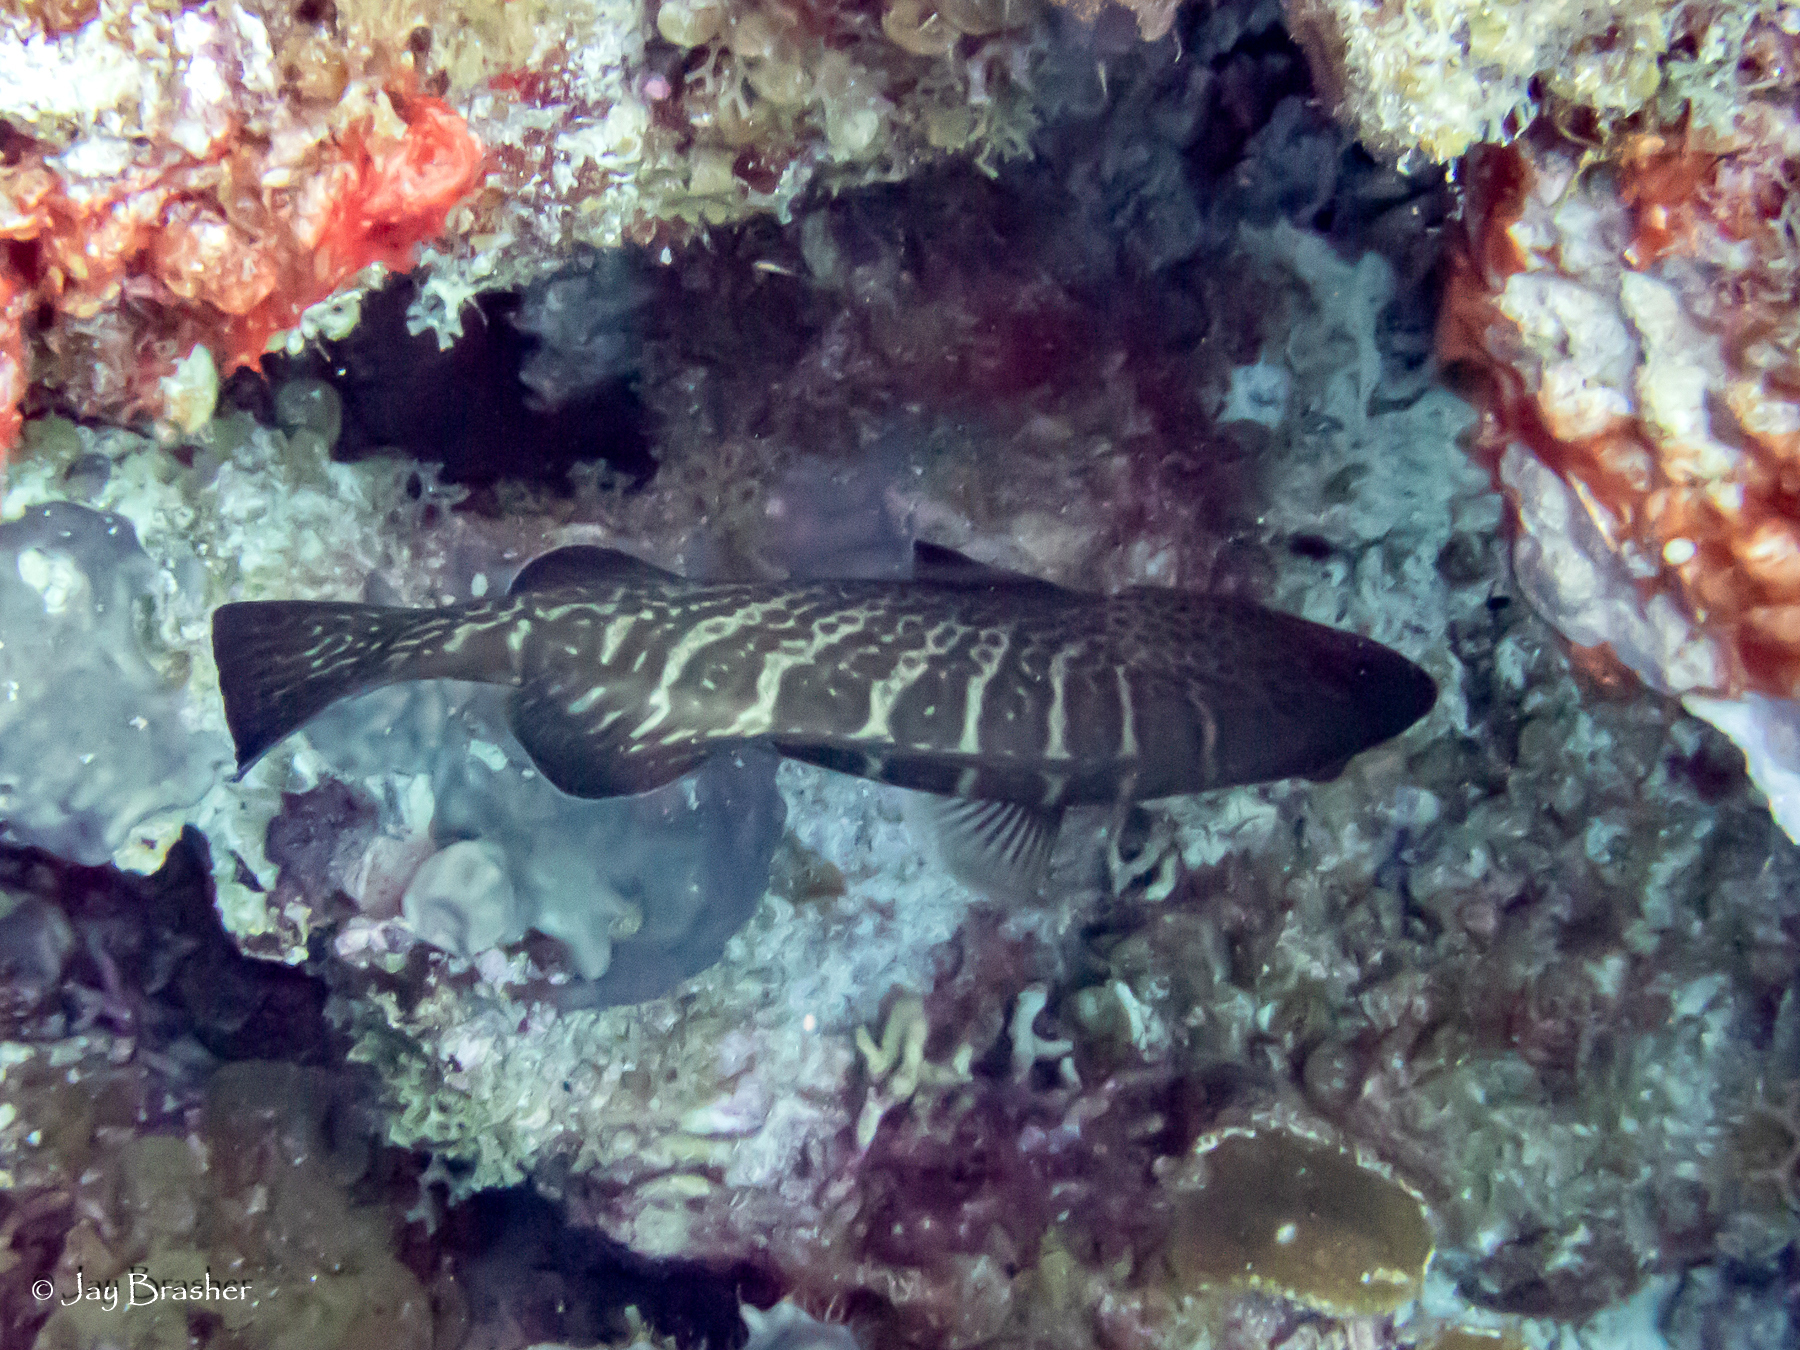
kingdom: Animalia
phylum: Chordata
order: Perciformes
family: Serranidae
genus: Mycteroperca
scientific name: Mycteroperca tigris
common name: Tiger grouper
